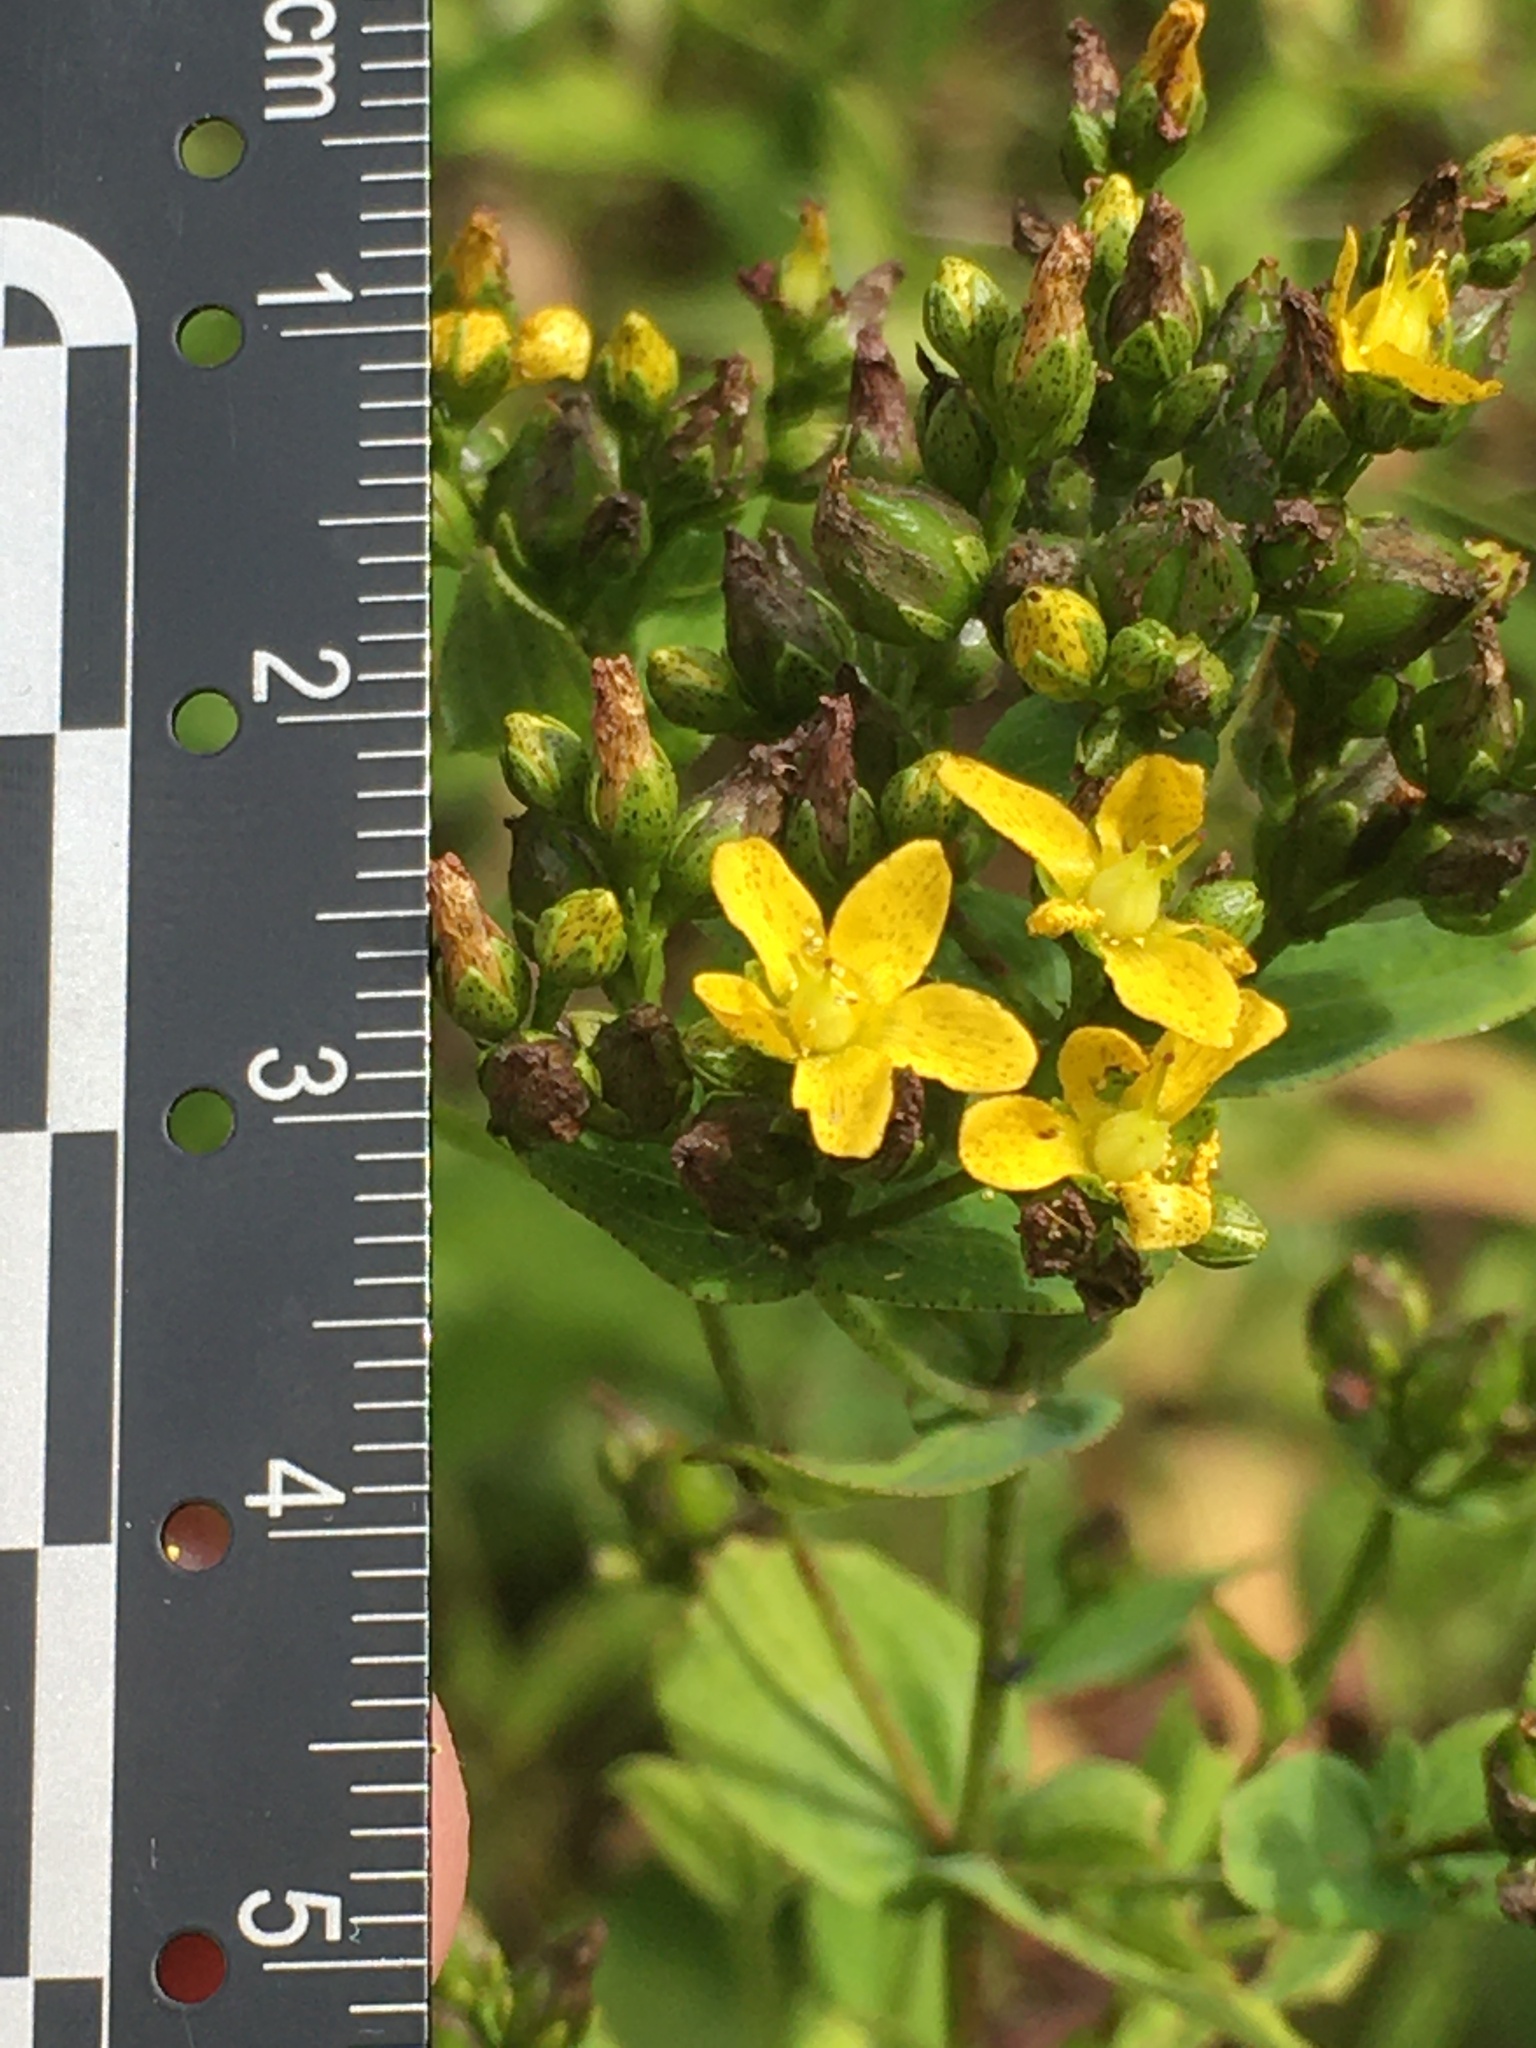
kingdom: Plantae
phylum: Tracheophyta
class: Magnoliopsida
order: Malpighiales
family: Hypericaceae
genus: Hypericum
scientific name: Hypericum punctatum
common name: Spotted st. john's-wort
